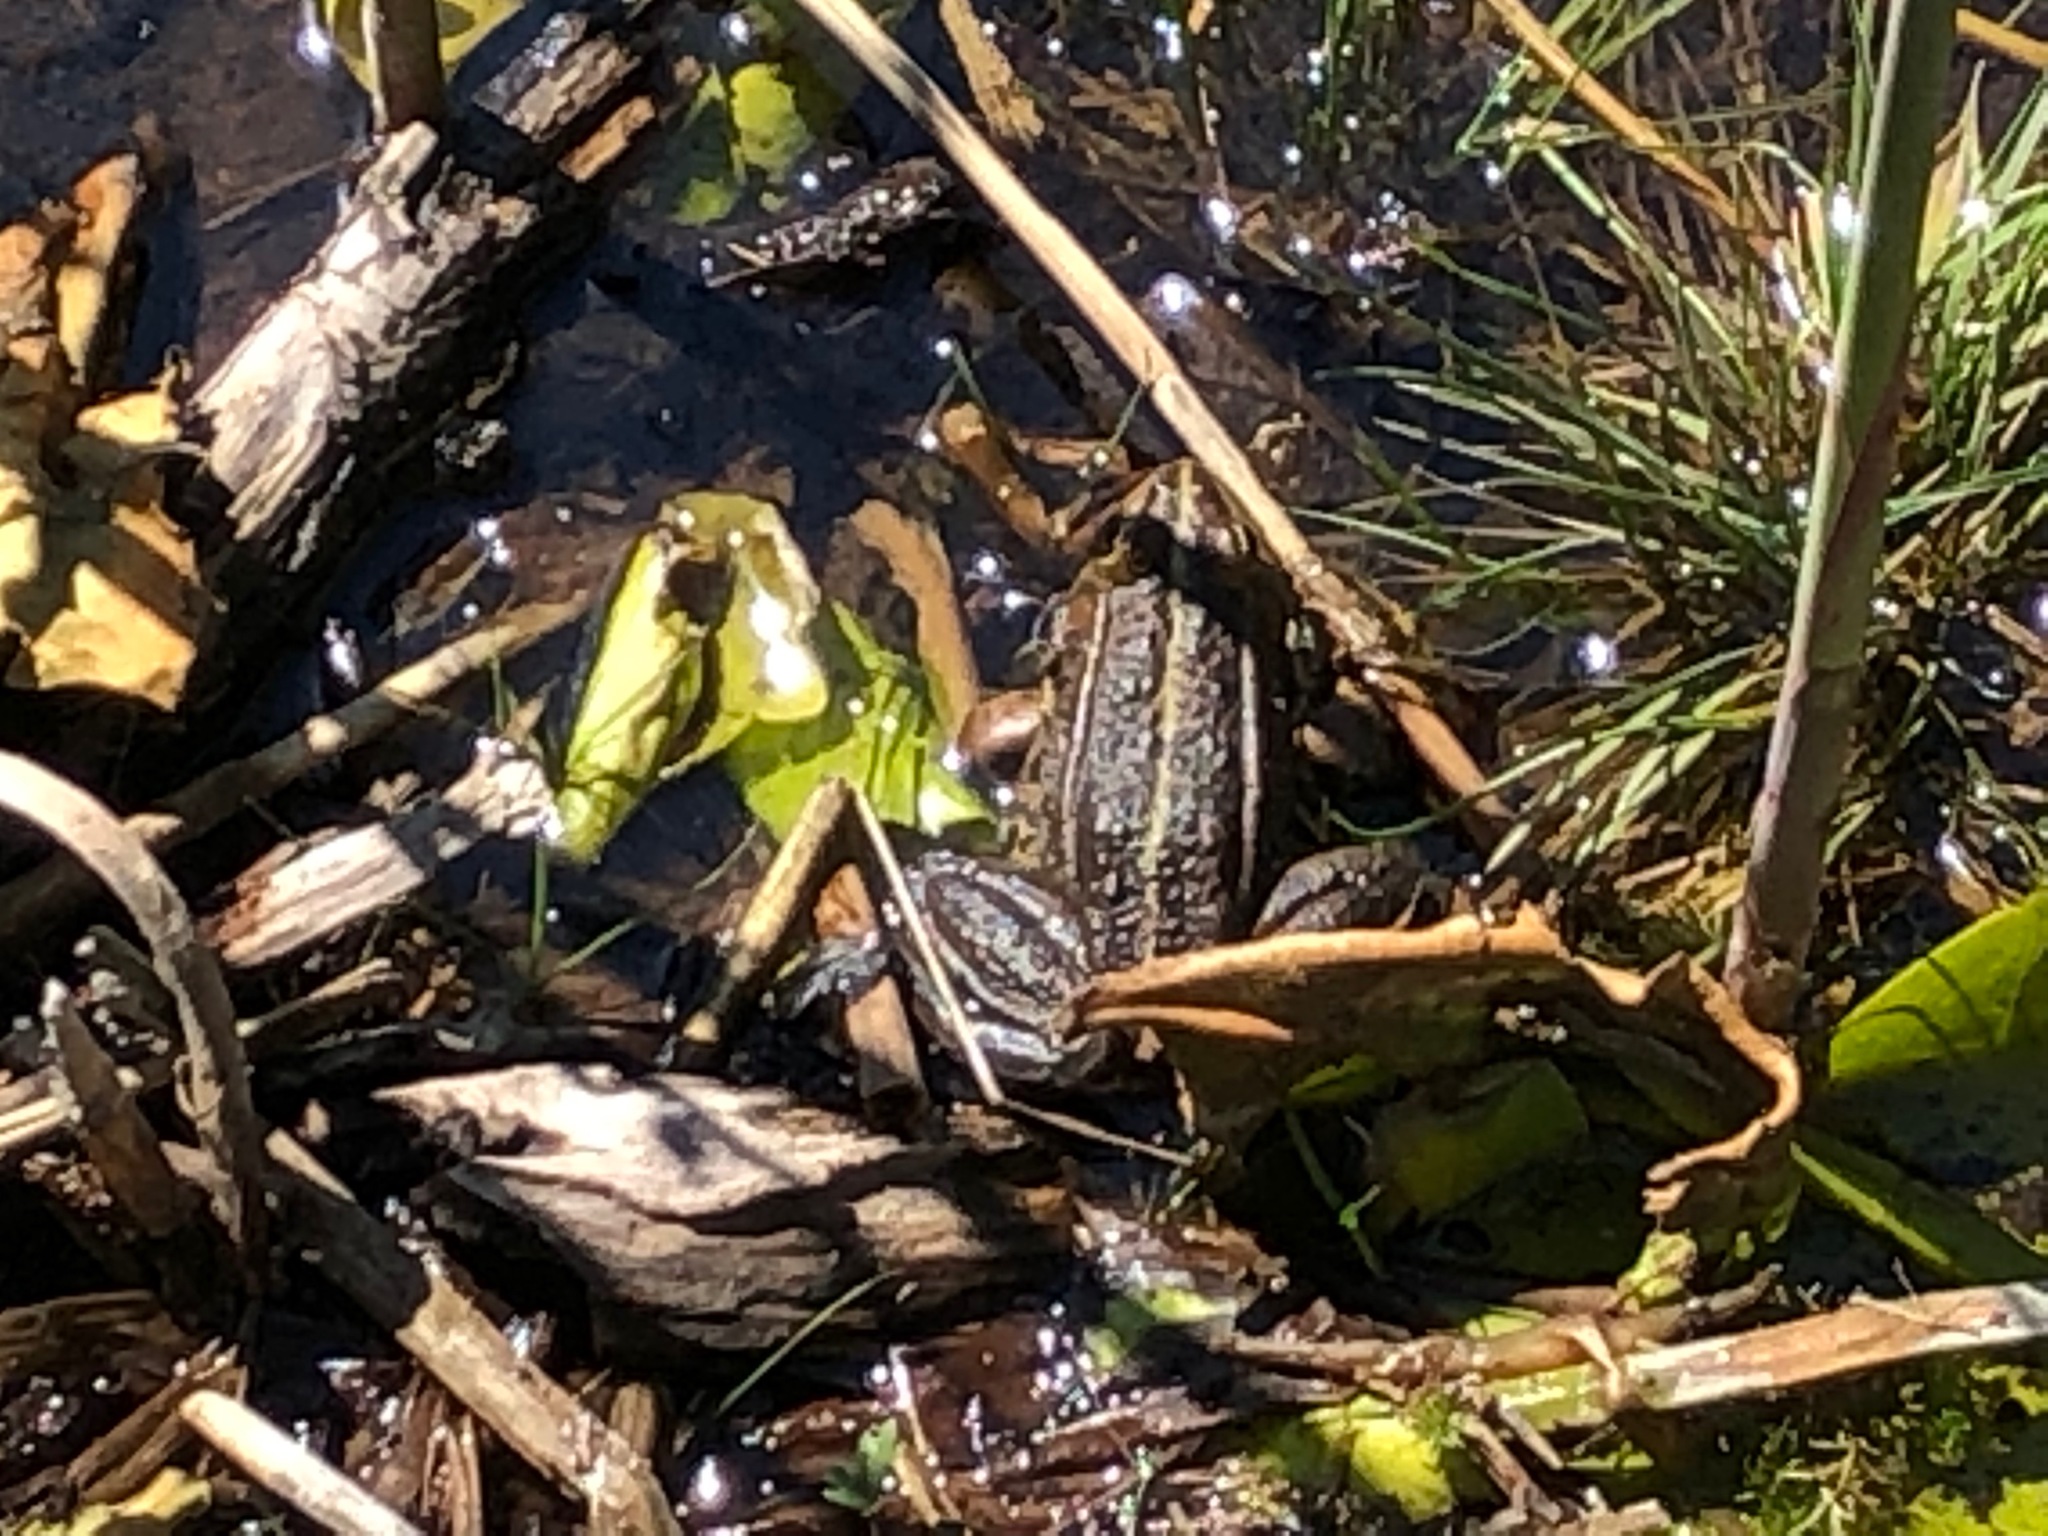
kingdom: Animalia
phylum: Chordata
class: Amphibia
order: Anura
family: Ranidae
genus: Pelophylax
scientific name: Pelophylax
